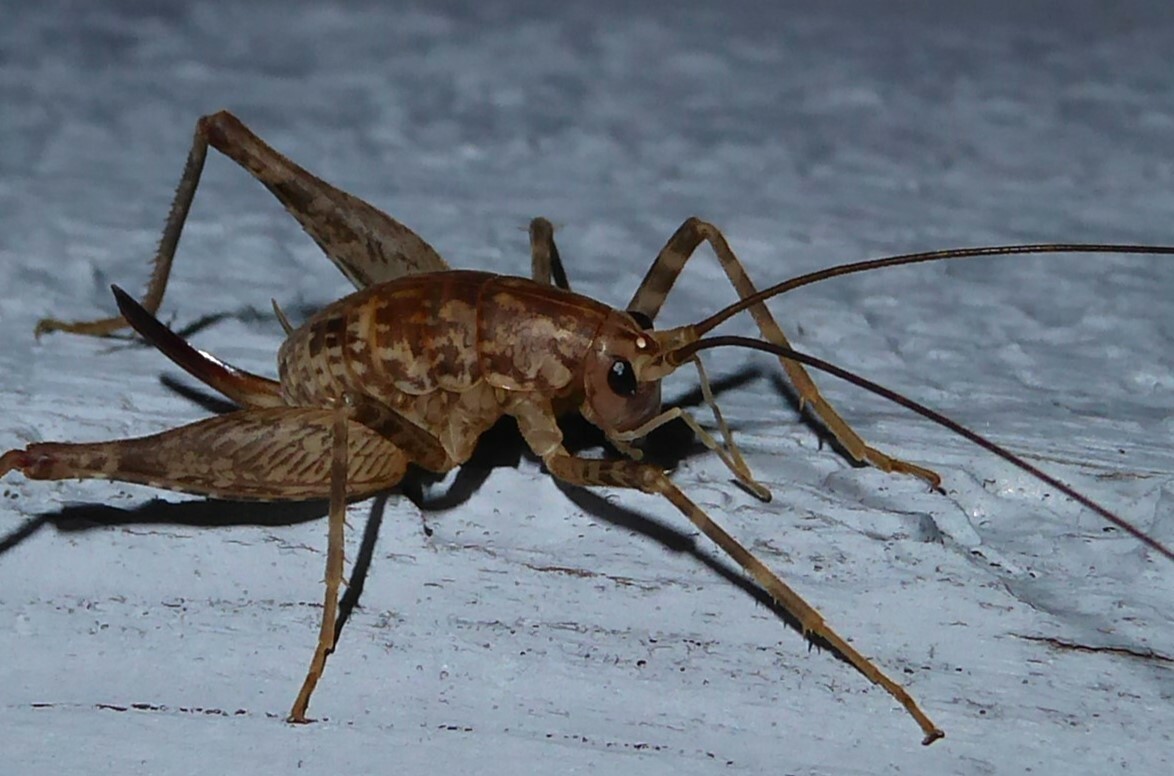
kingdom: Animalia
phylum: Arthropoda
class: Insecta
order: Orthoptera
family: Rhaphidophoridae
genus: Pleioplectron
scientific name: Pleioplectron simplex
